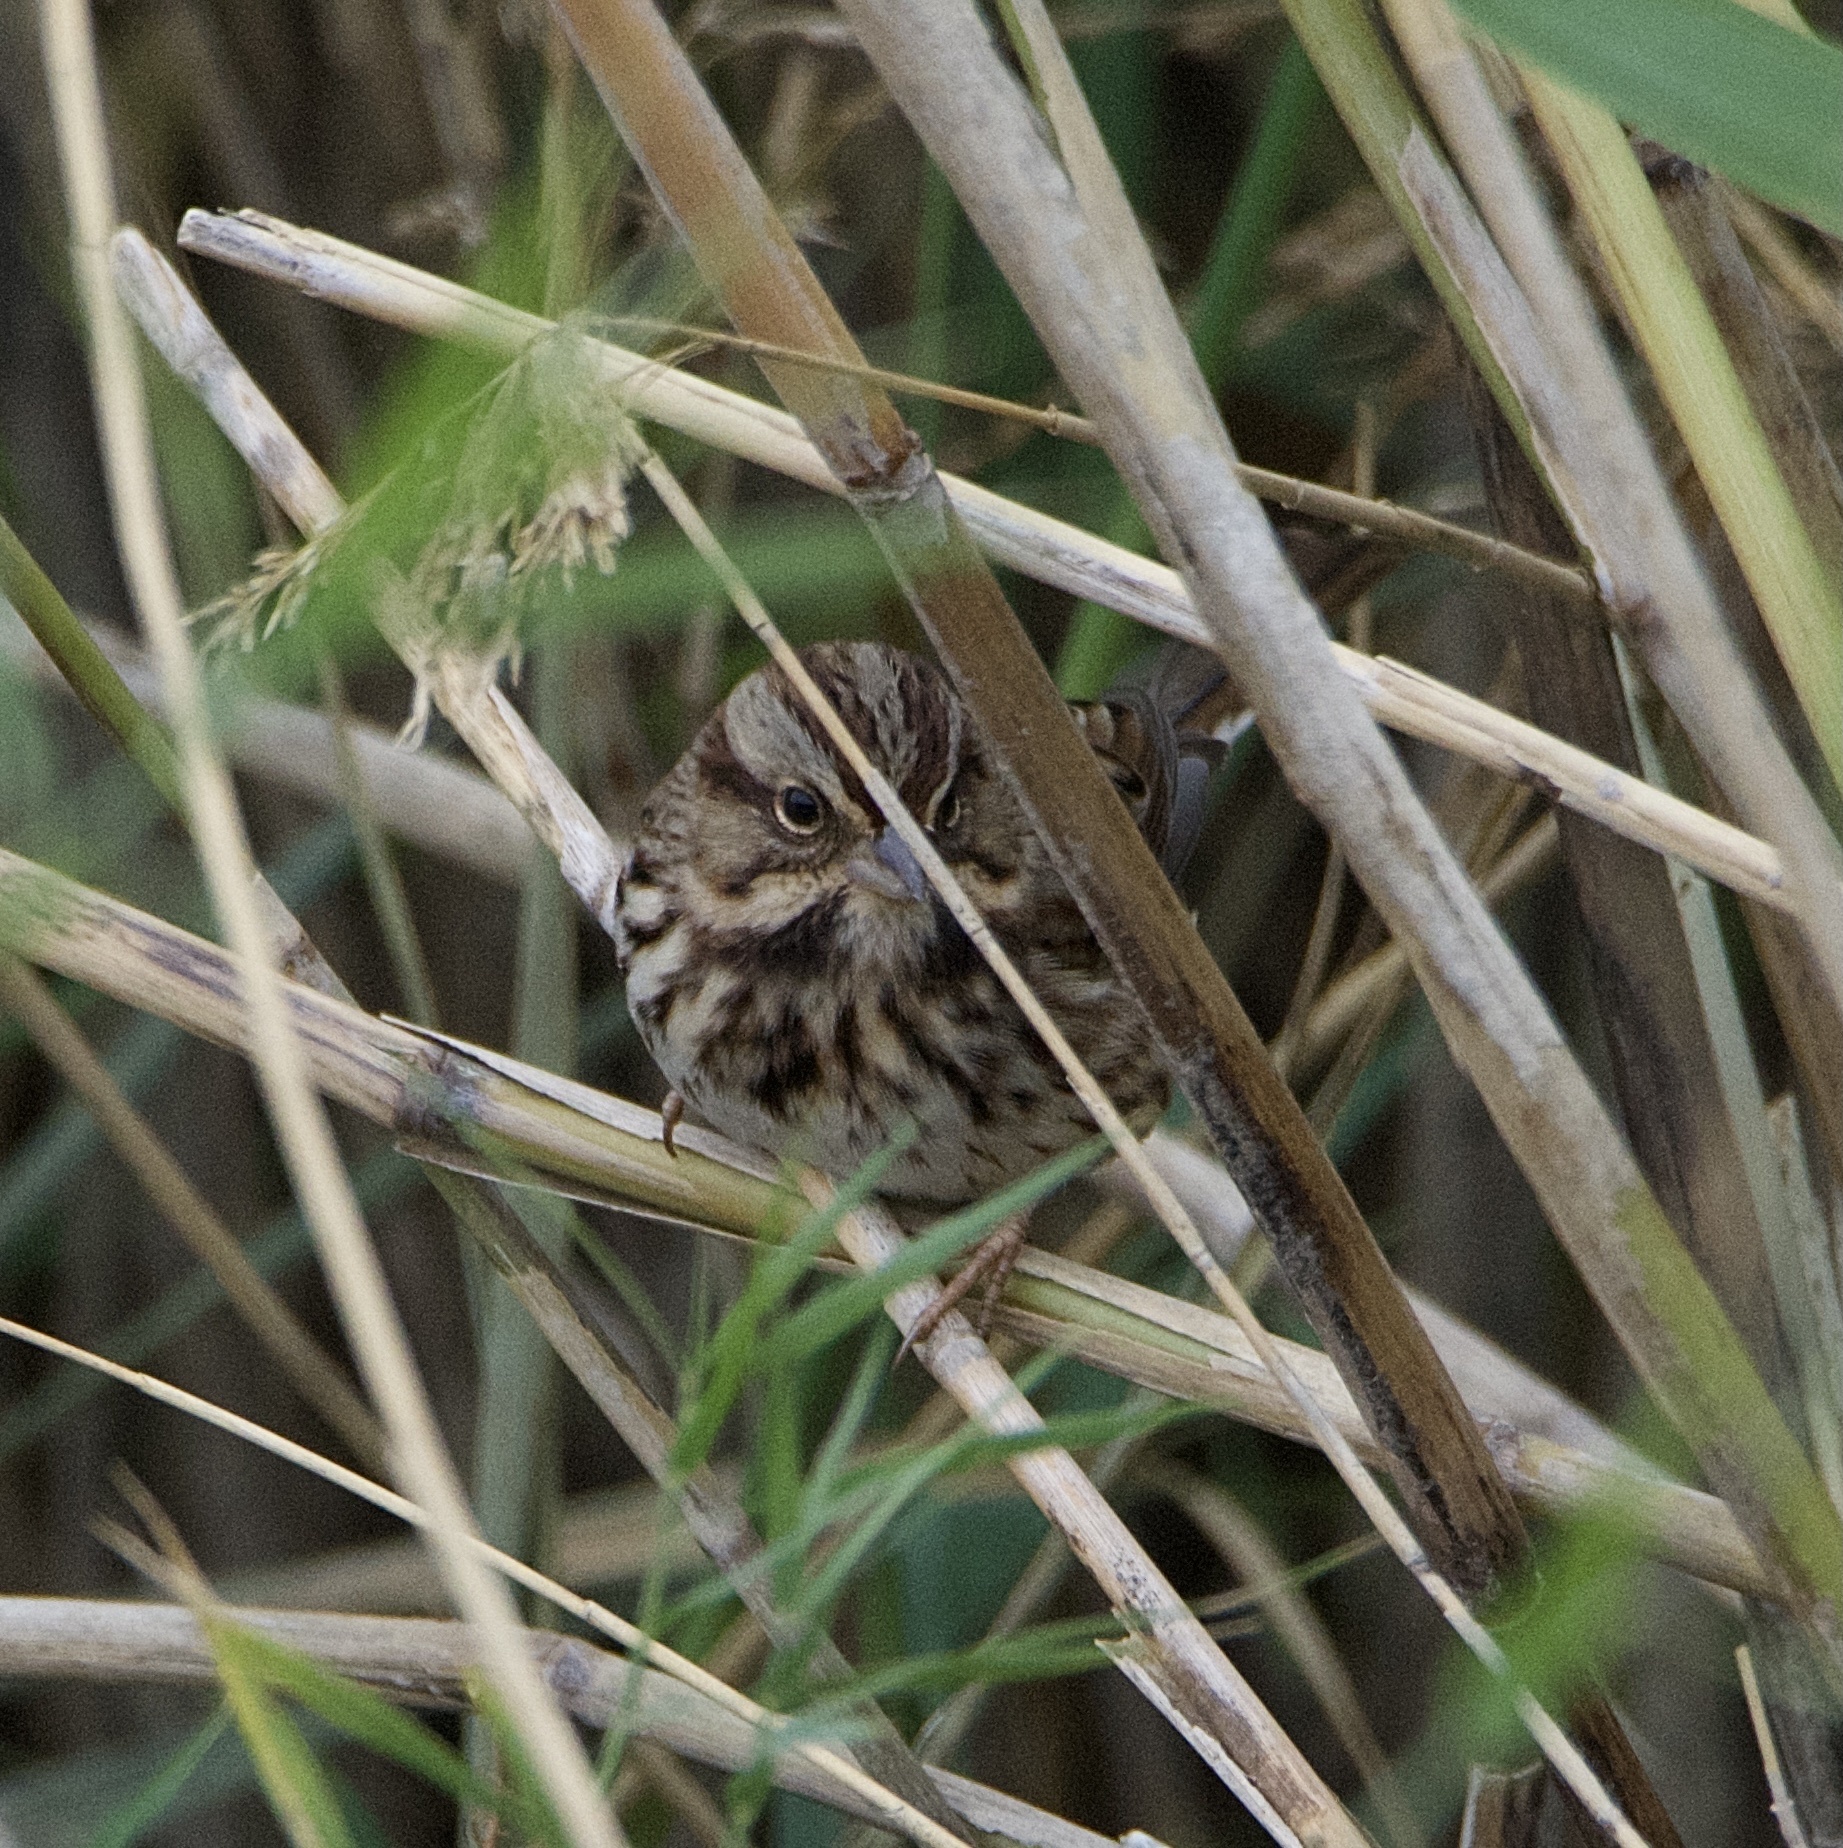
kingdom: Animalia
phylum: Chordata
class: Aves
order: Passeriformes
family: Passerellidae
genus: Melospiza
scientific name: Melospiza melodia
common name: Song sparrow
